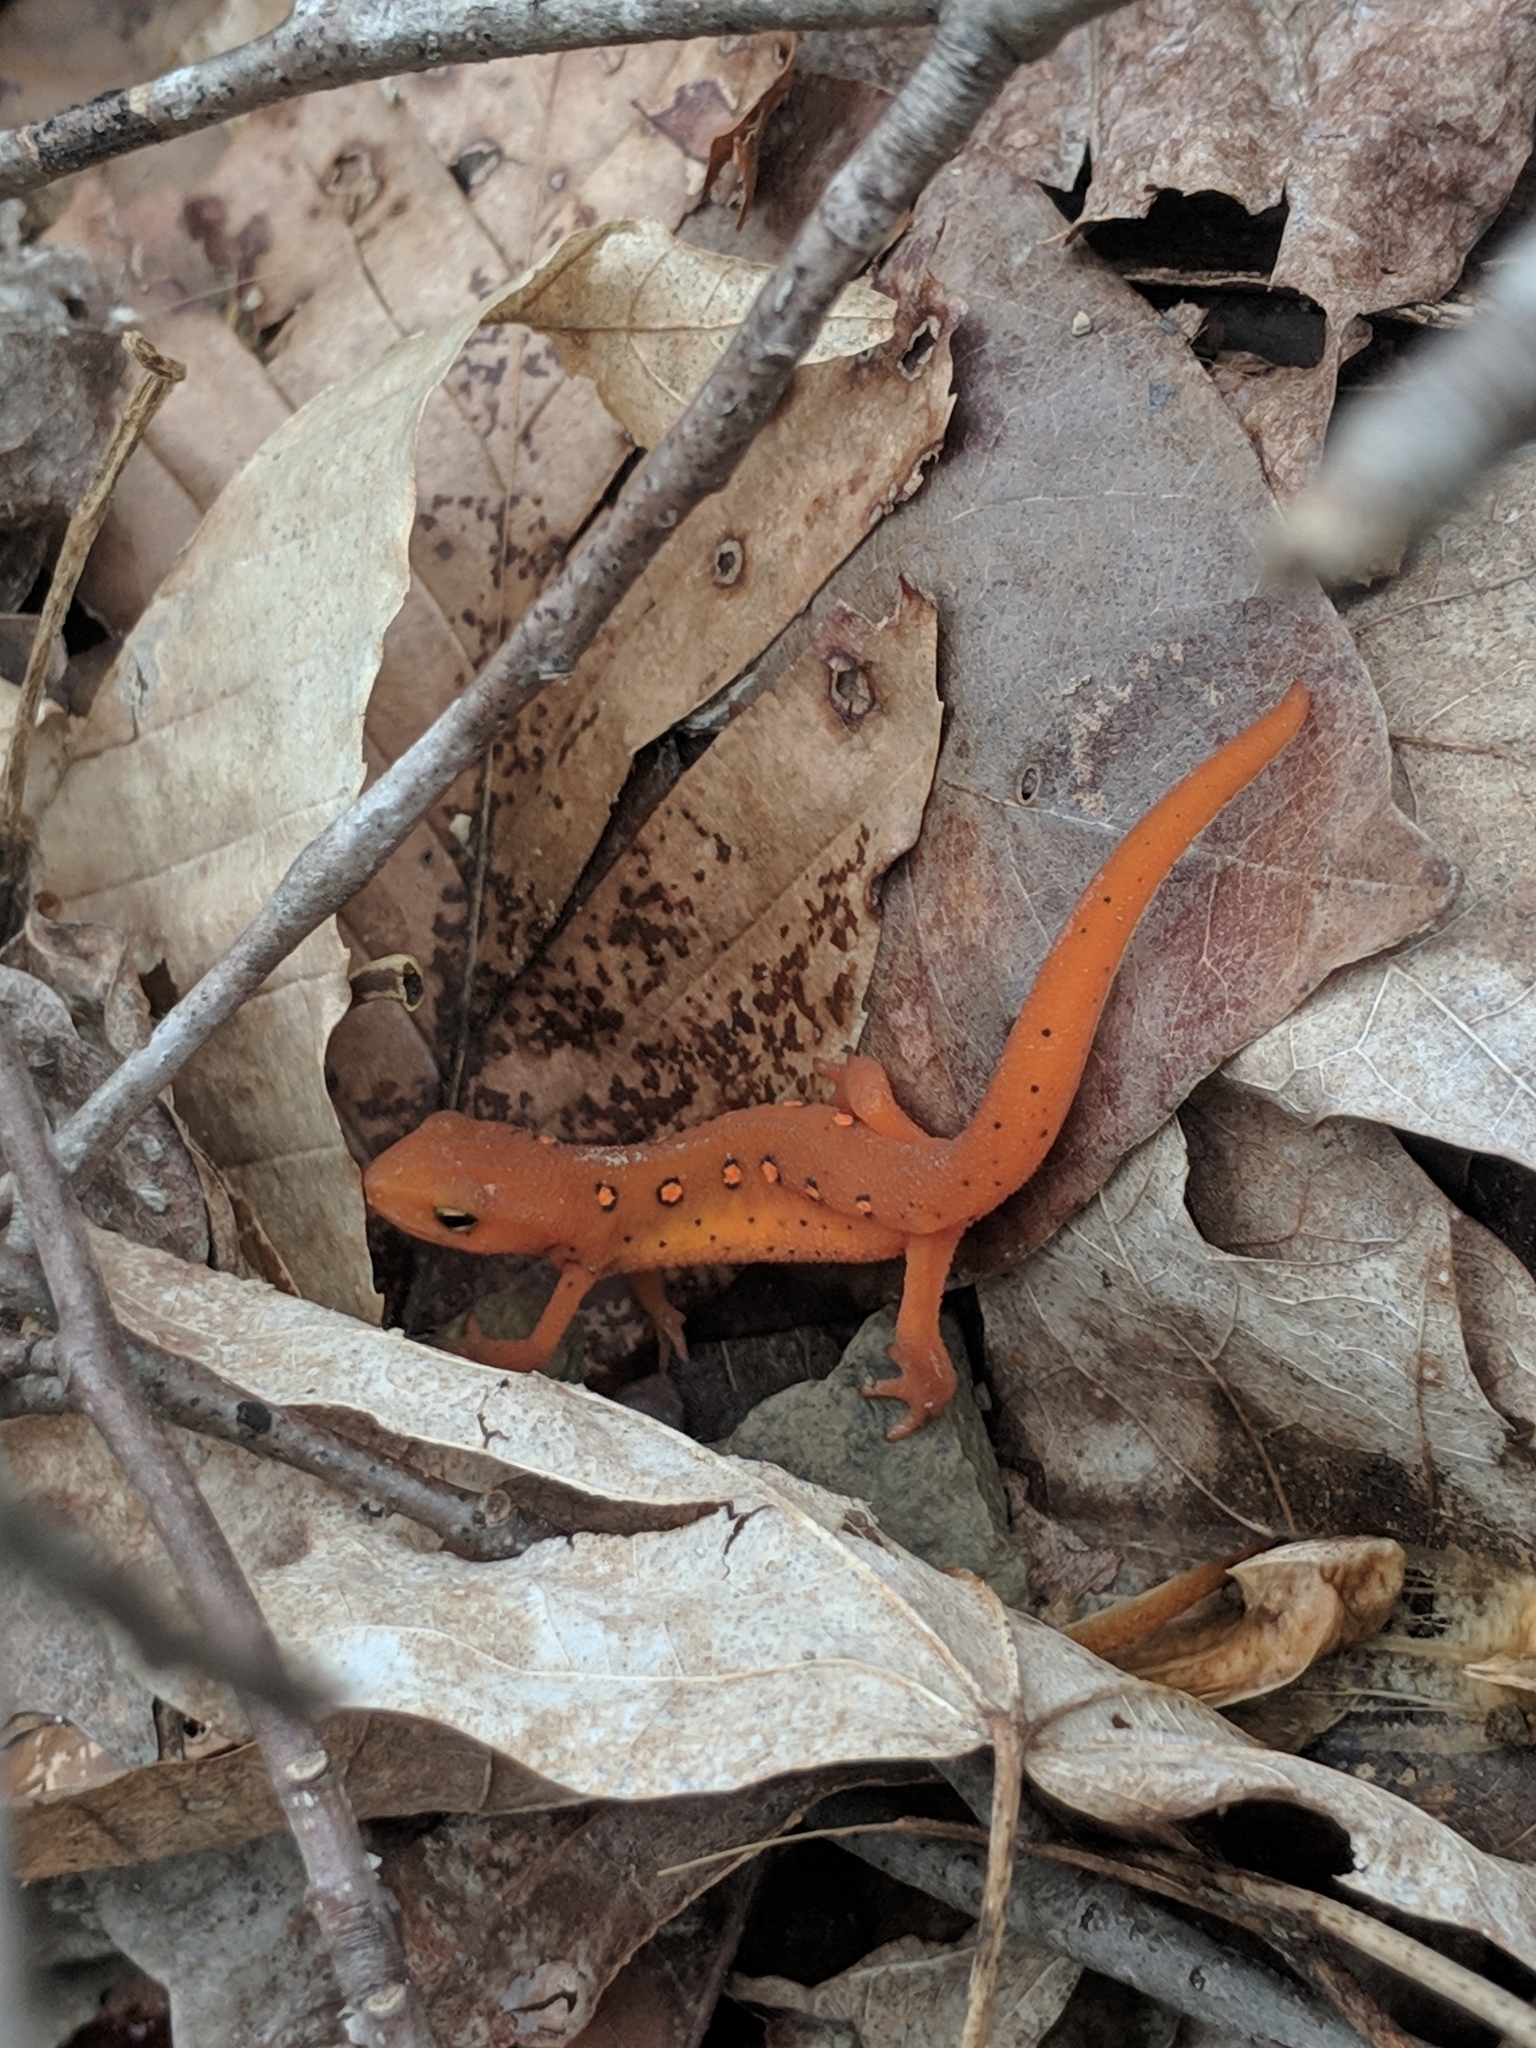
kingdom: Animalia
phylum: Chordata
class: Amphibia
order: Caudata
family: Salamandridae
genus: Notophthalmus
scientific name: Notophthalmus viridescens
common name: Eastern newt
